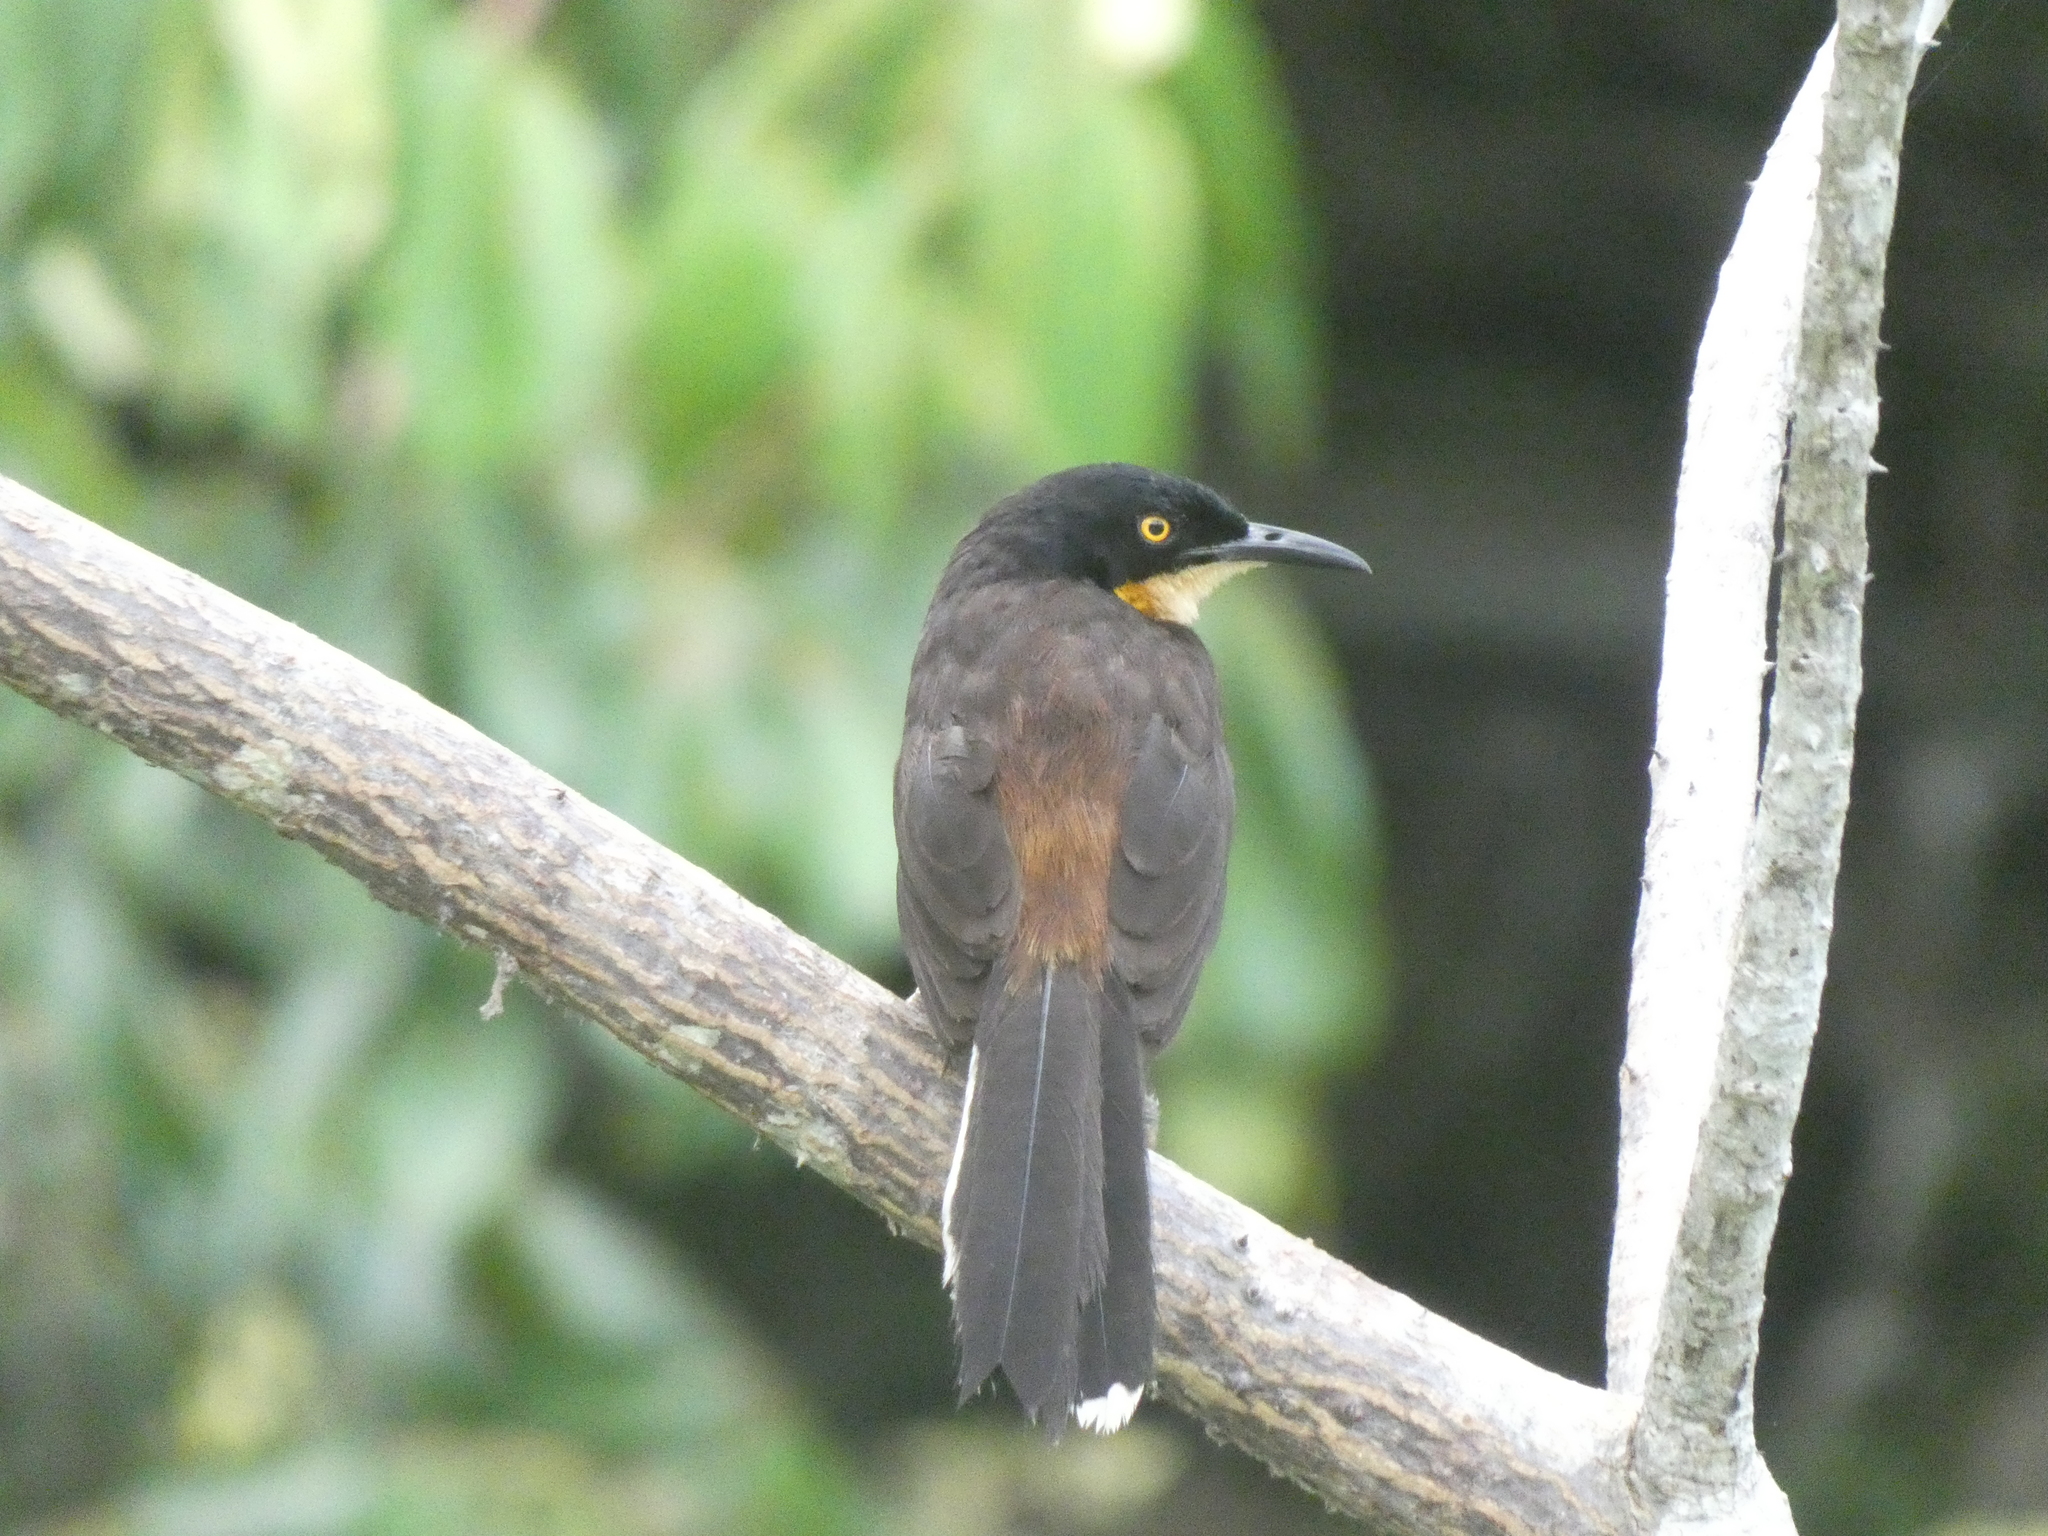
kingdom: Animalia
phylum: Chordata
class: Aves
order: Passeriformes
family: Donacobiidae
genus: Donacobius
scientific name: Donacobius atricapilla
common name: Black-capped donacobius
